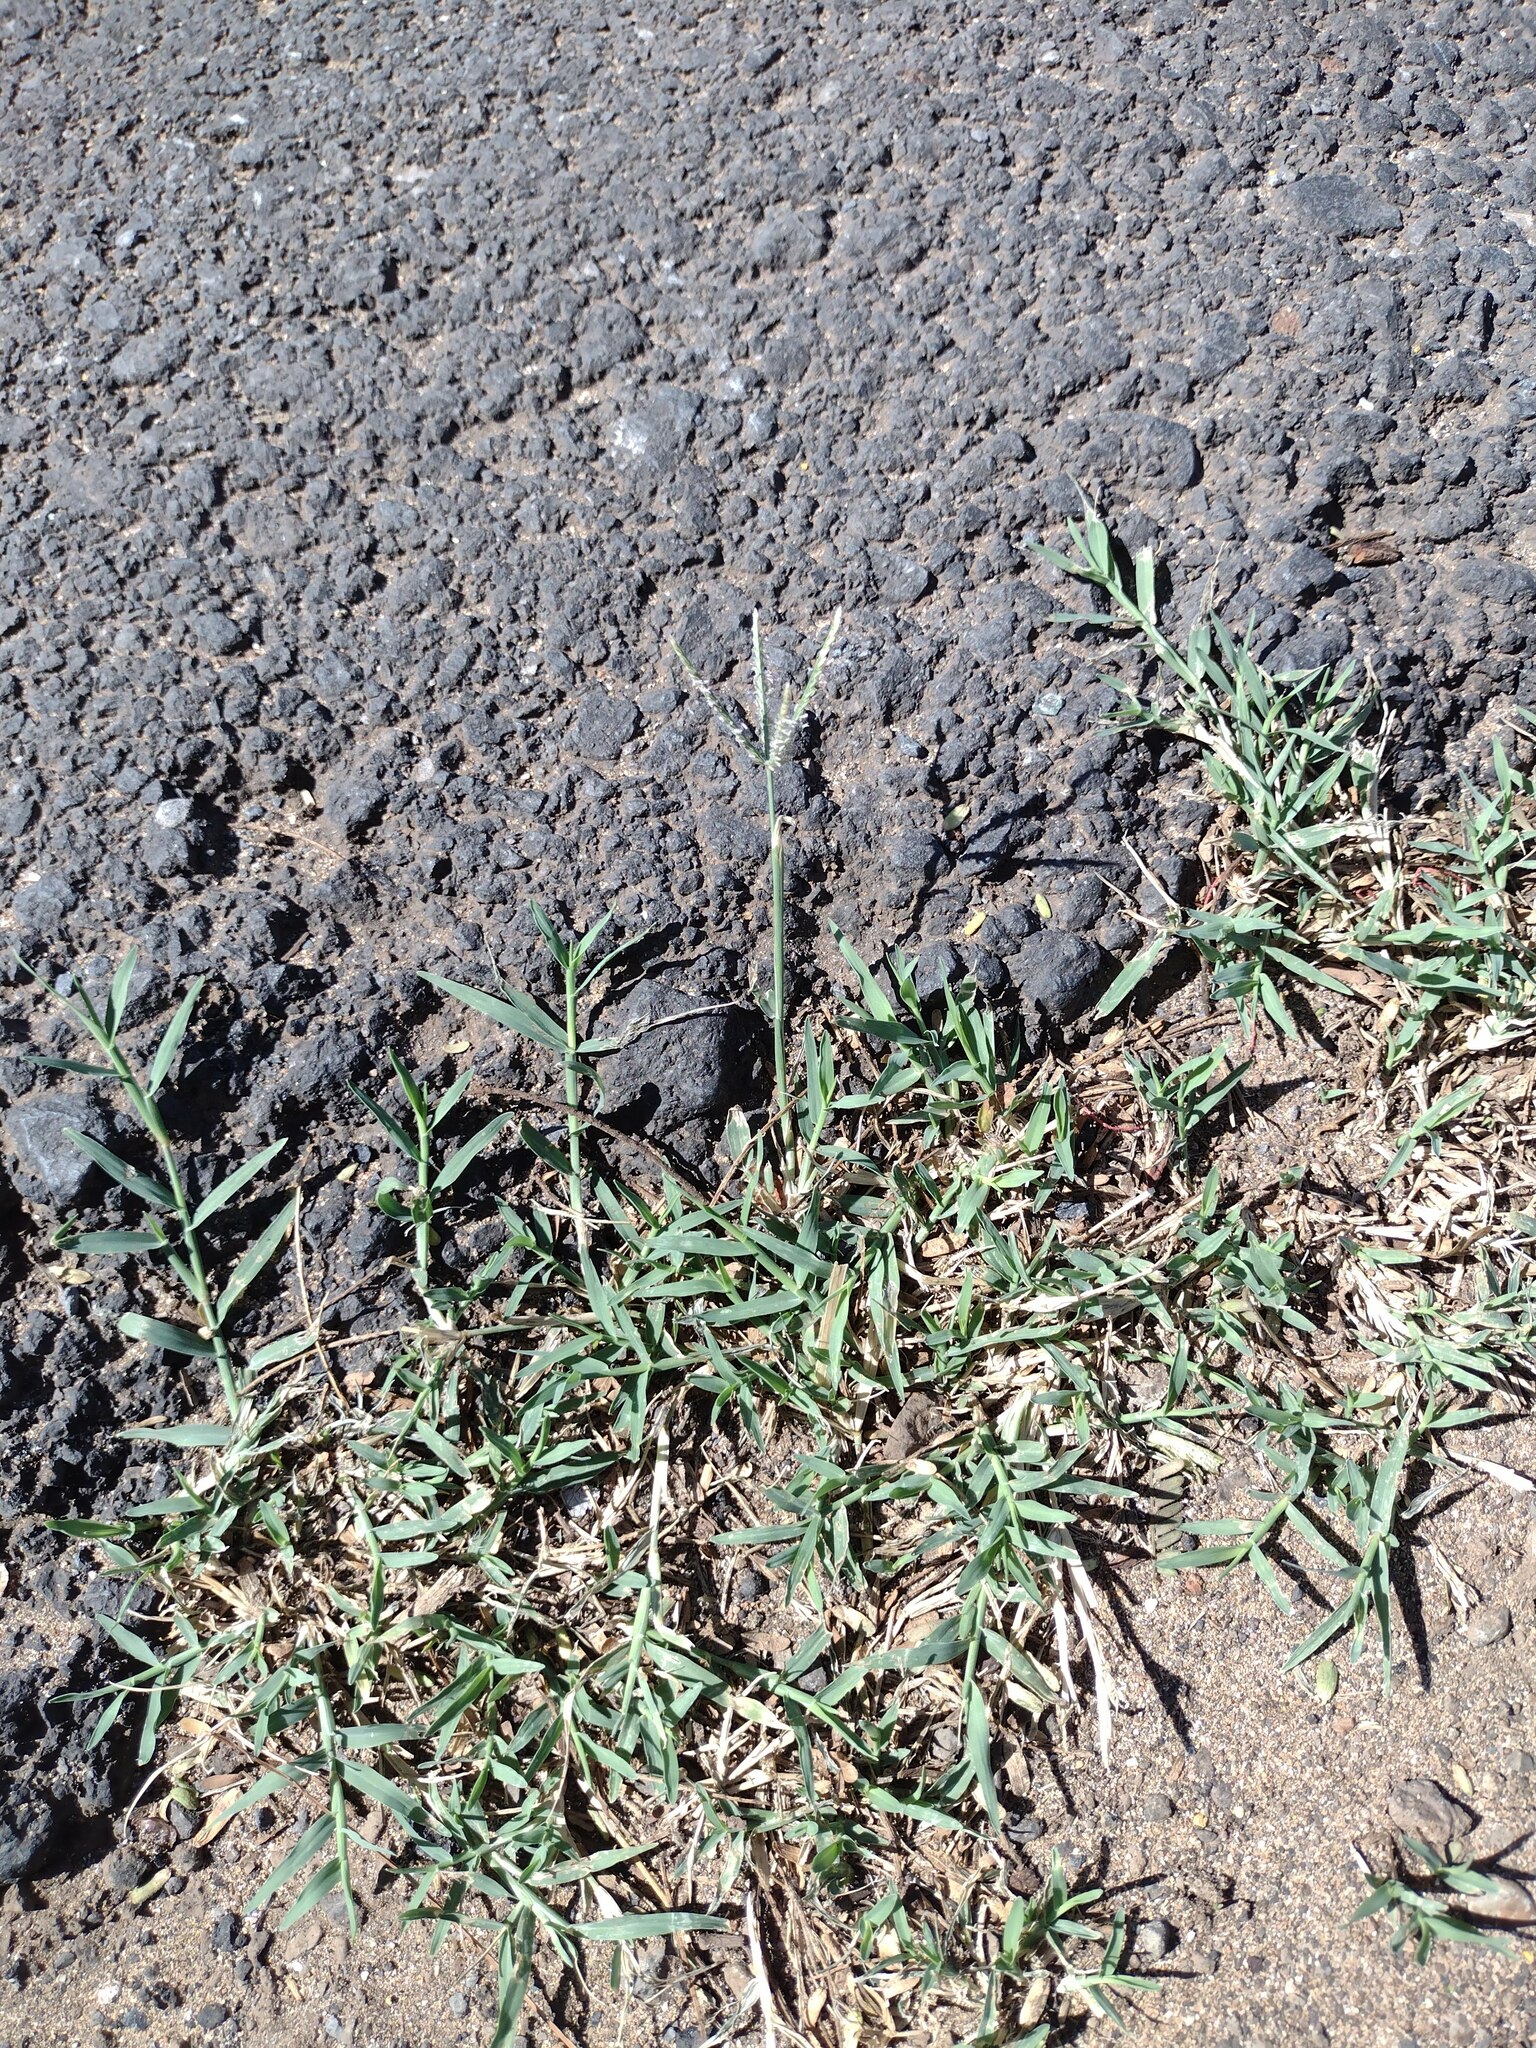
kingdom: Plantae
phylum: Tracheophyta
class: Liliopsida
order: Poales
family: Poaceae
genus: Cynodon
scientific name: Cynodon dactylon
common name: Bermuda grass
